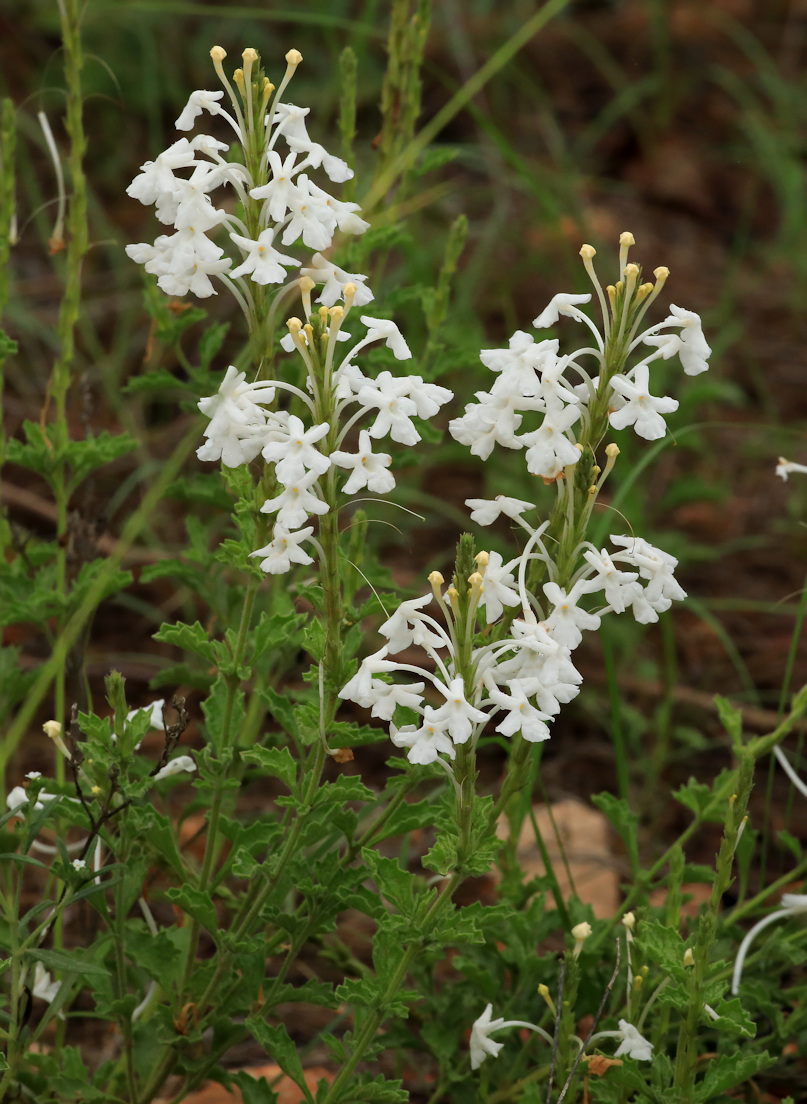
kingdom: Plantae
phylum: Tracheophyta
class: Magnoliopsida
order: Lamiales
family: Verbenaceae
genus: Chascanum
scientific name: Chascanum hederaceum
